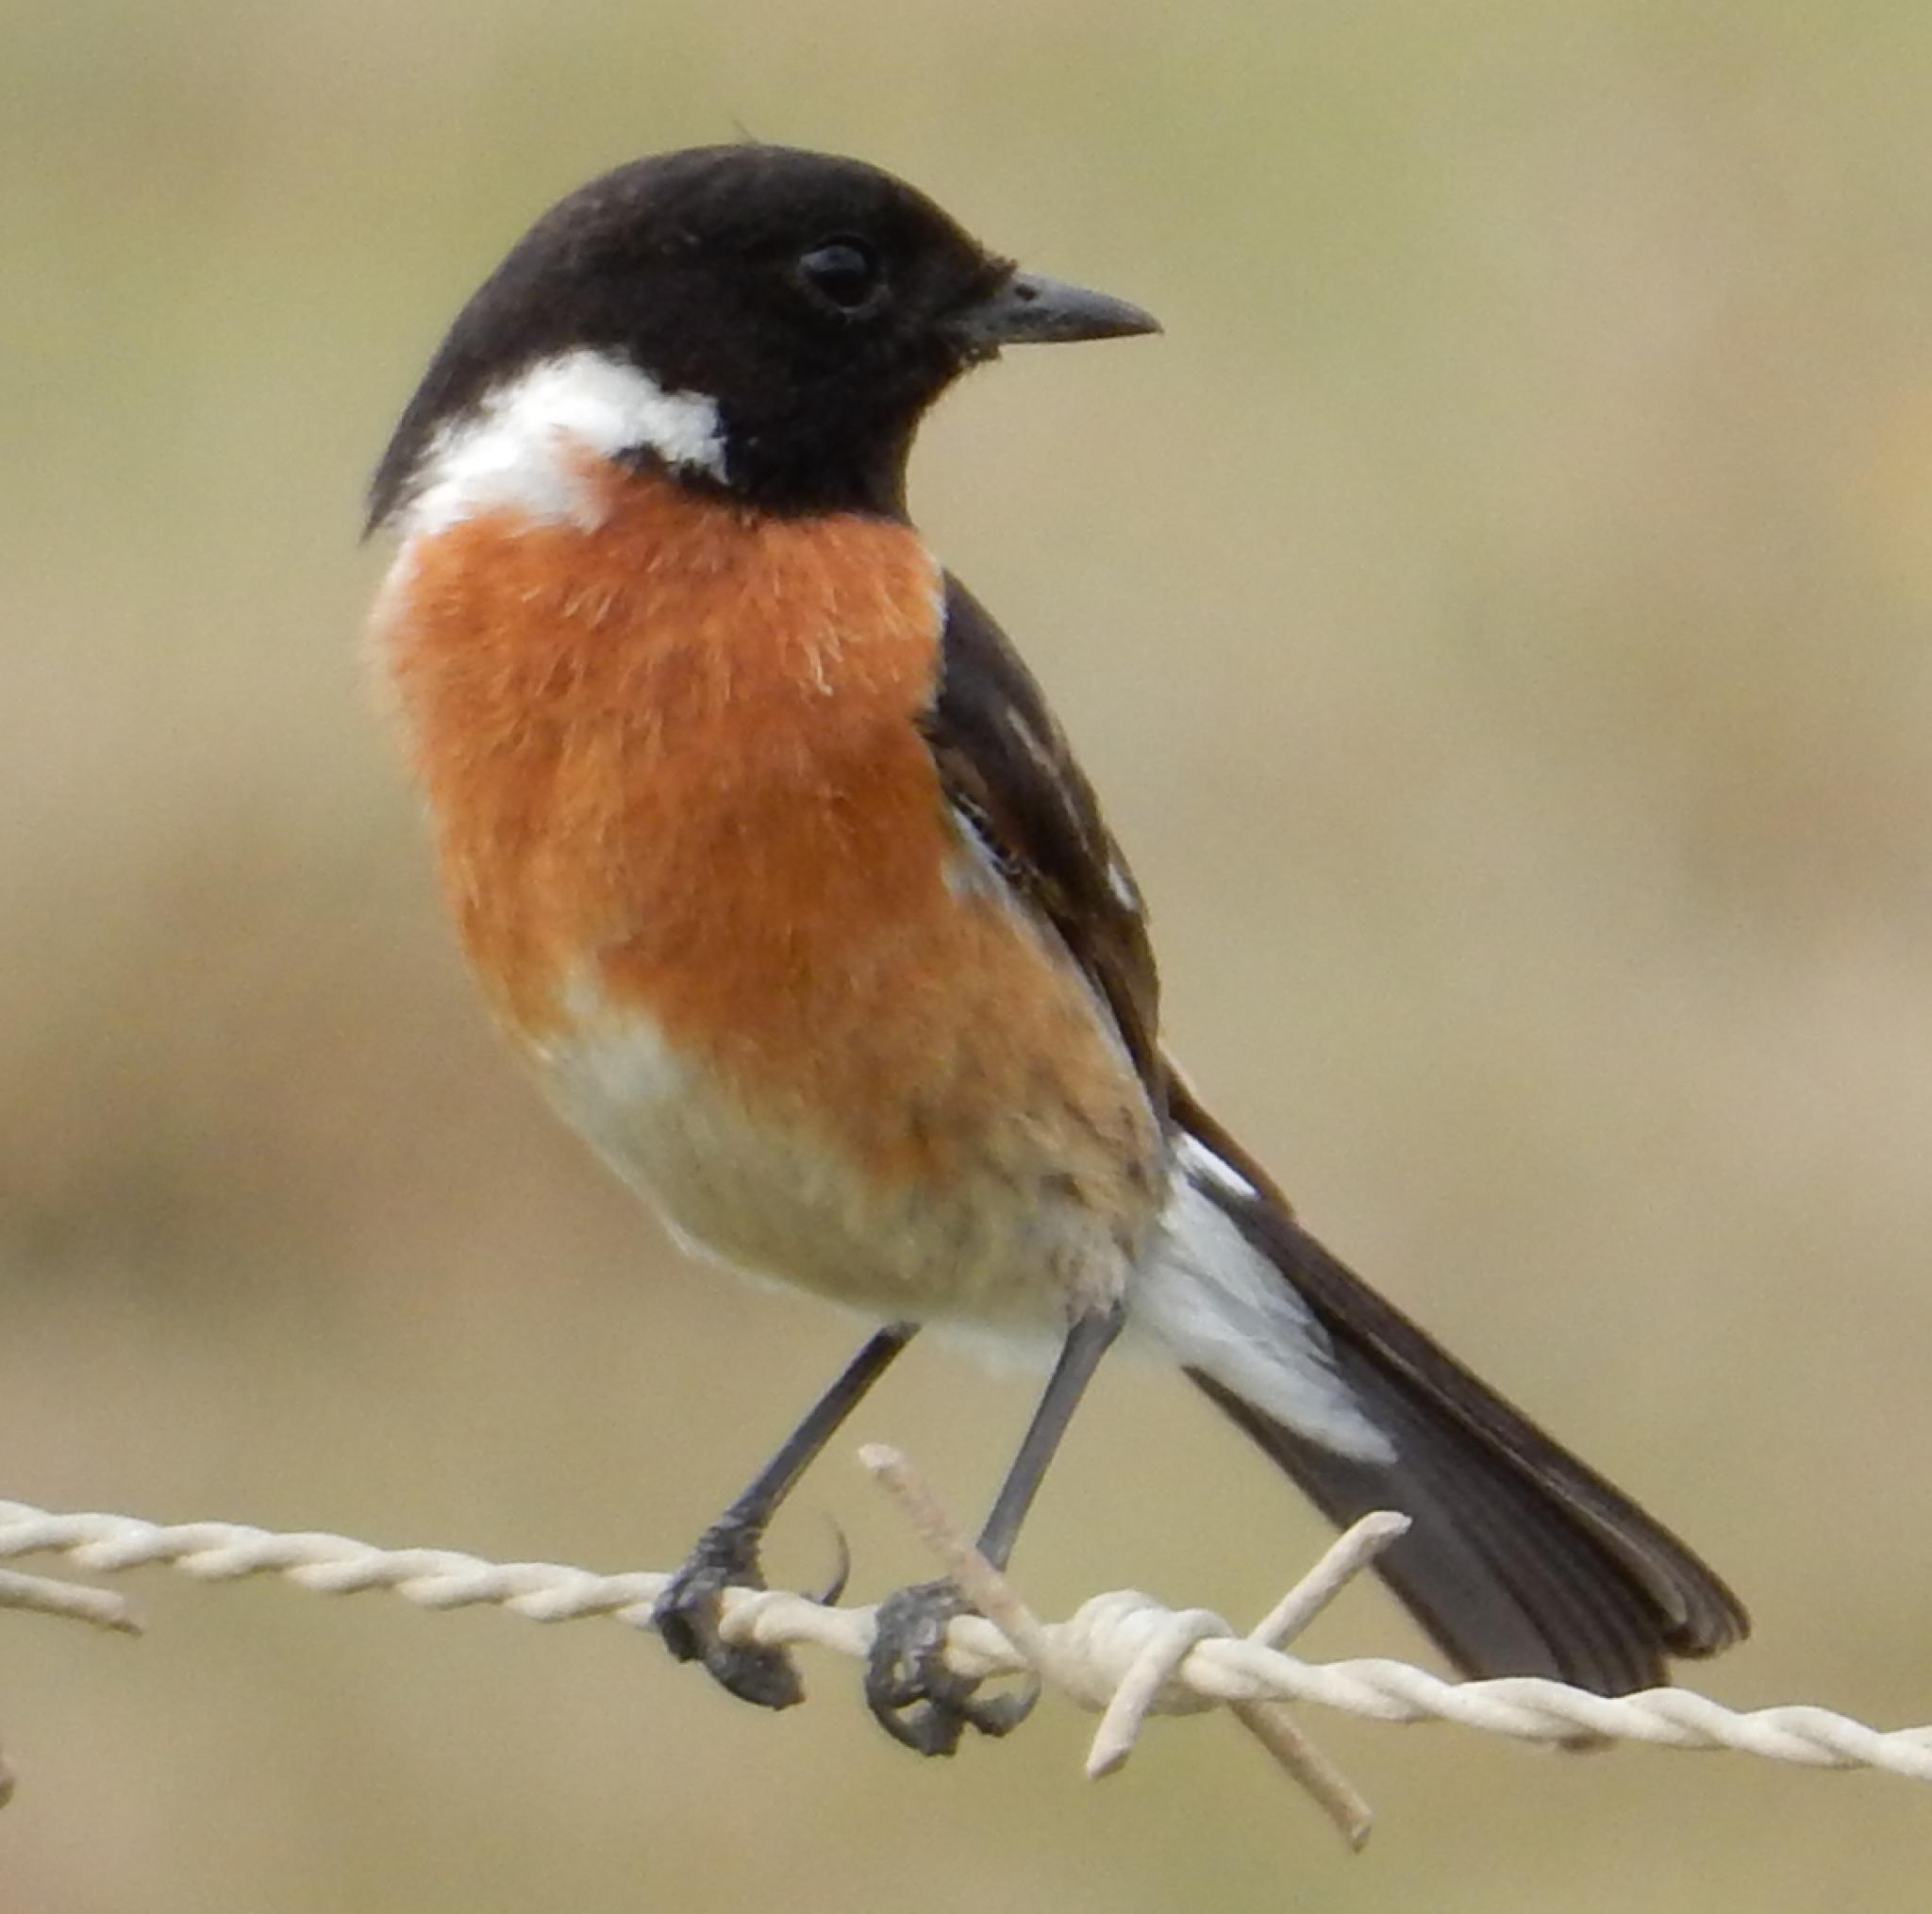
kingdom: Animalia
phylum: Chordata
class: Aves
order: Passeriformes
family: Muscicapidae
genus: Saxicola
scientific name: Saxicola torquatus
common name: African stonechat
